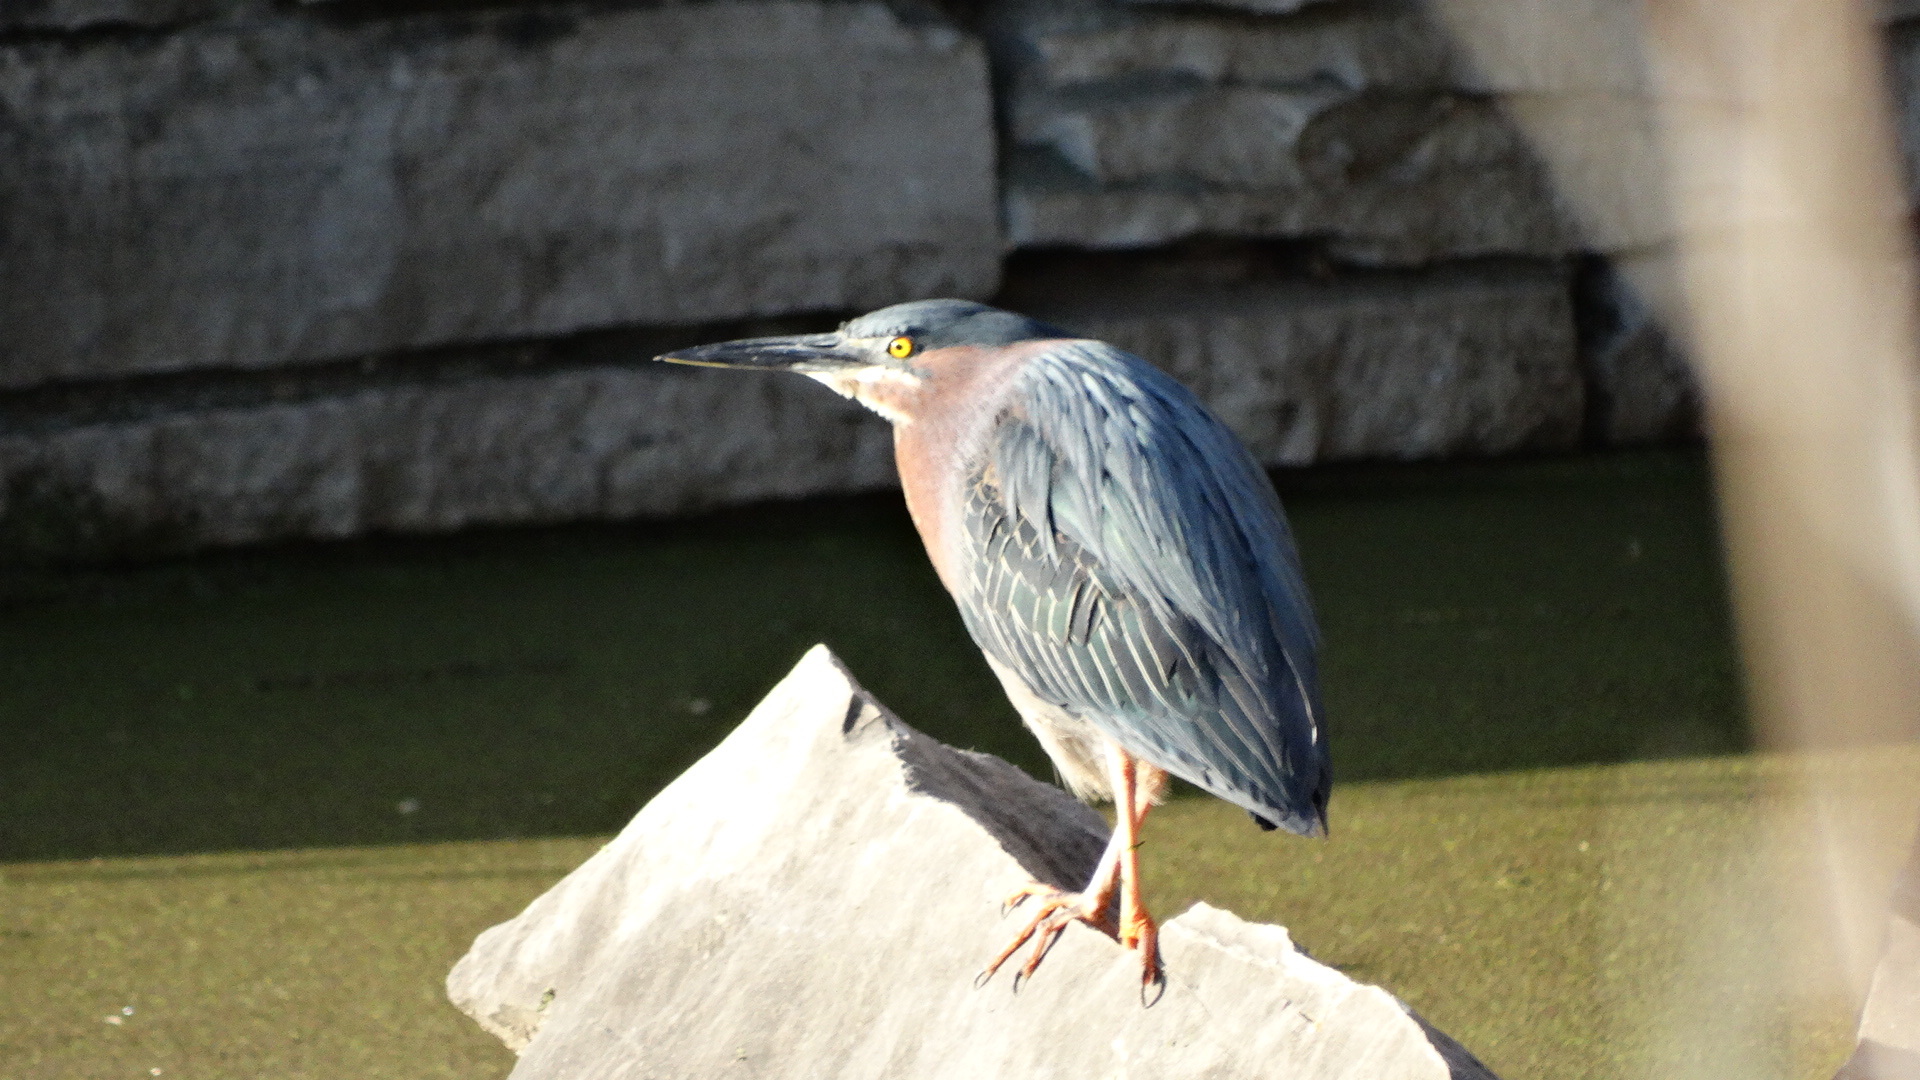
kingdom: Animalia
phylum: Chordata
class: Aves
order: Pelecaniformes
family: Ardeidae
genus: Butorides
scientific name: Butorides virescens
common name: Green heron
